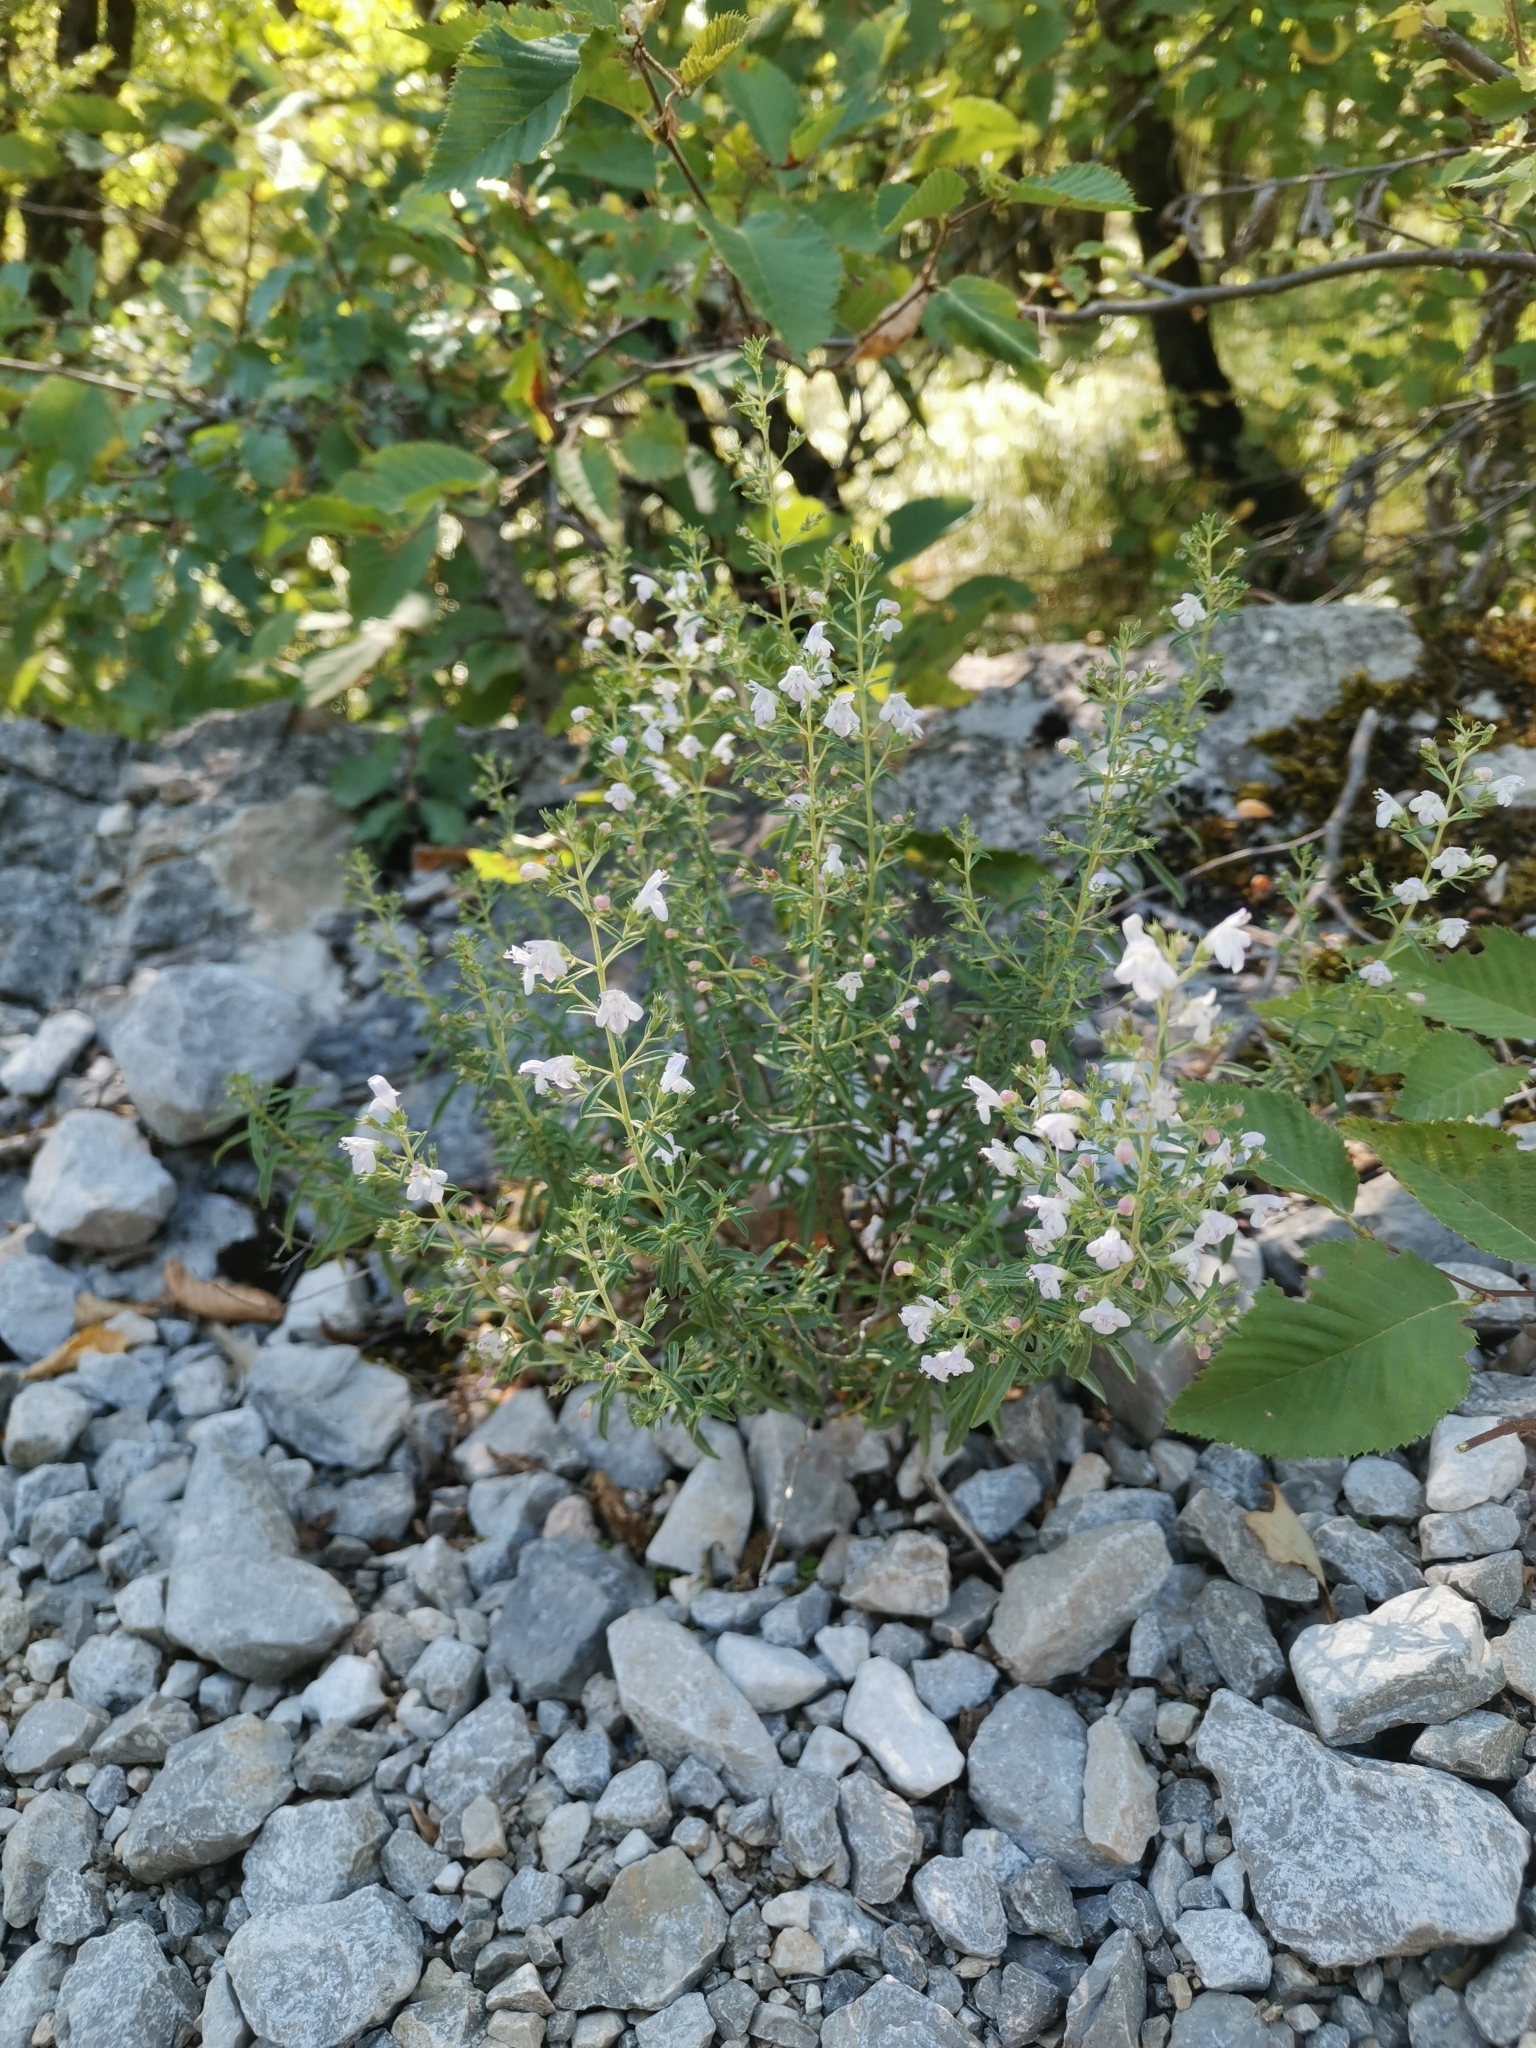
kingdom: Plantae
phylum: Tracheophyta
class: Magnoliopsida
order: Lamiales
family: Lamiaceae
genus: Satureja
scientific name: Satureja montana
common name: Winter savory
